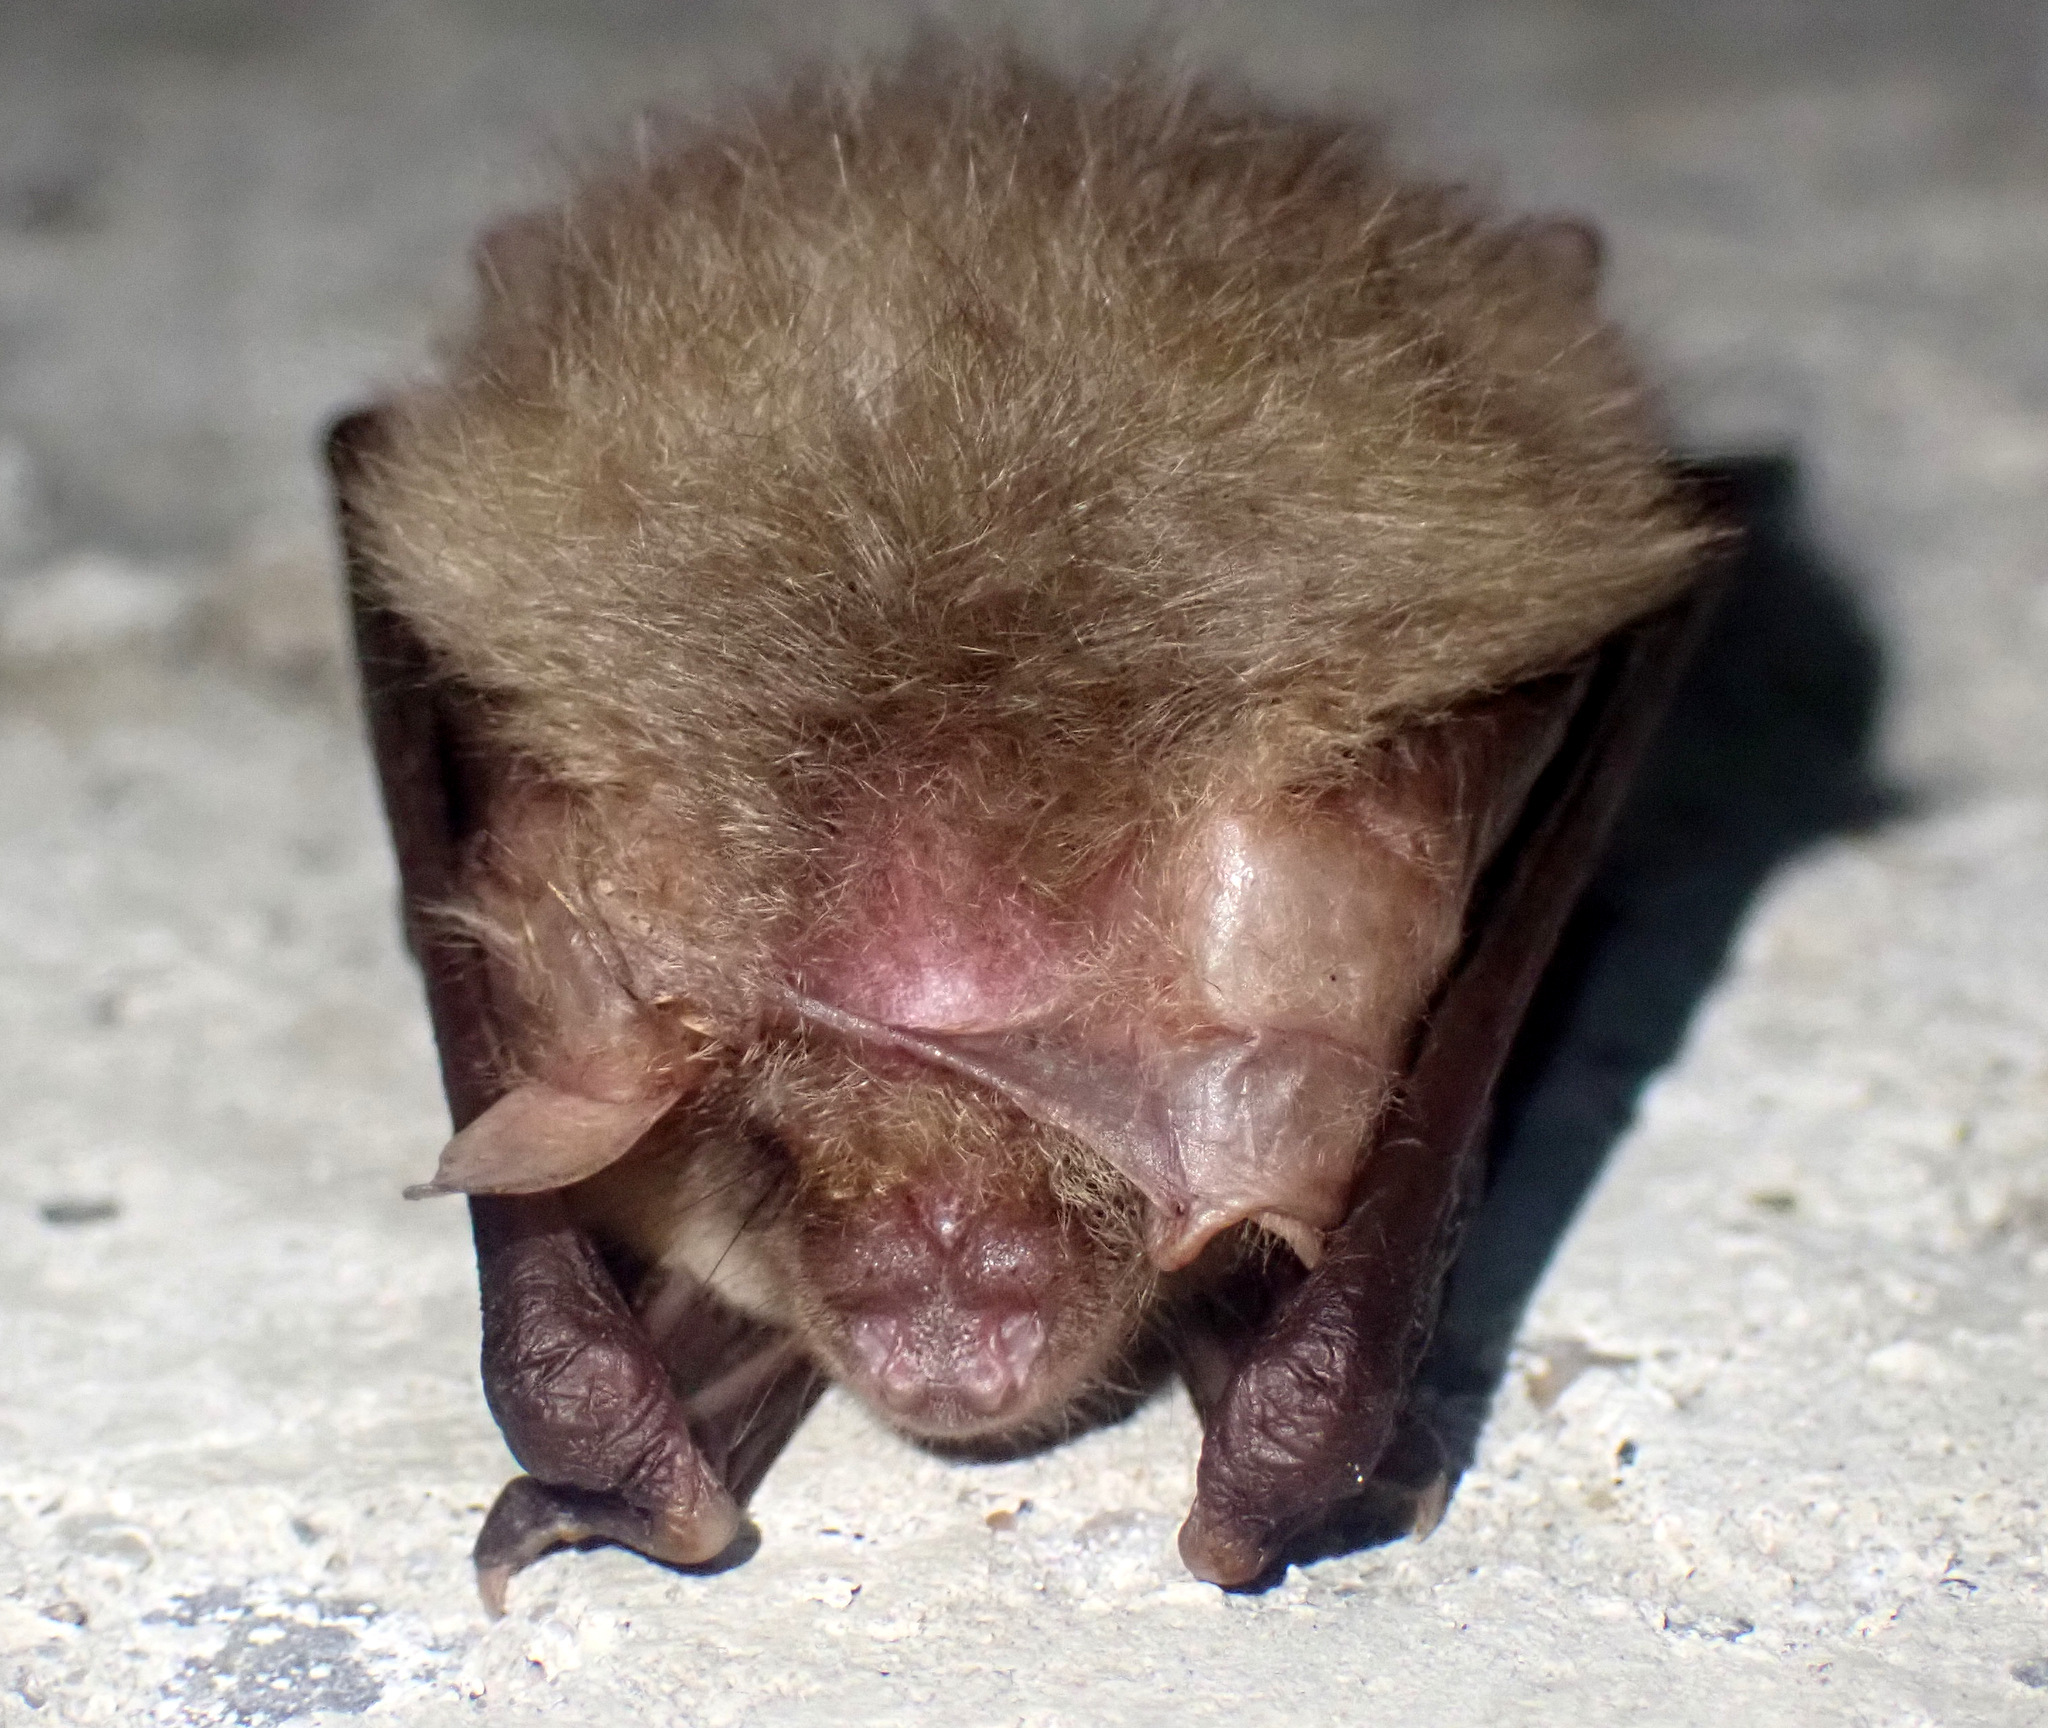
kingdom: Animalia
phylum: Chordata
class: Mammalia
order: Chiroptera
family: Vespertilionidae
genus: Plecotus
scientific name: Plecotus auritus
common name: Brown long-eared bat
